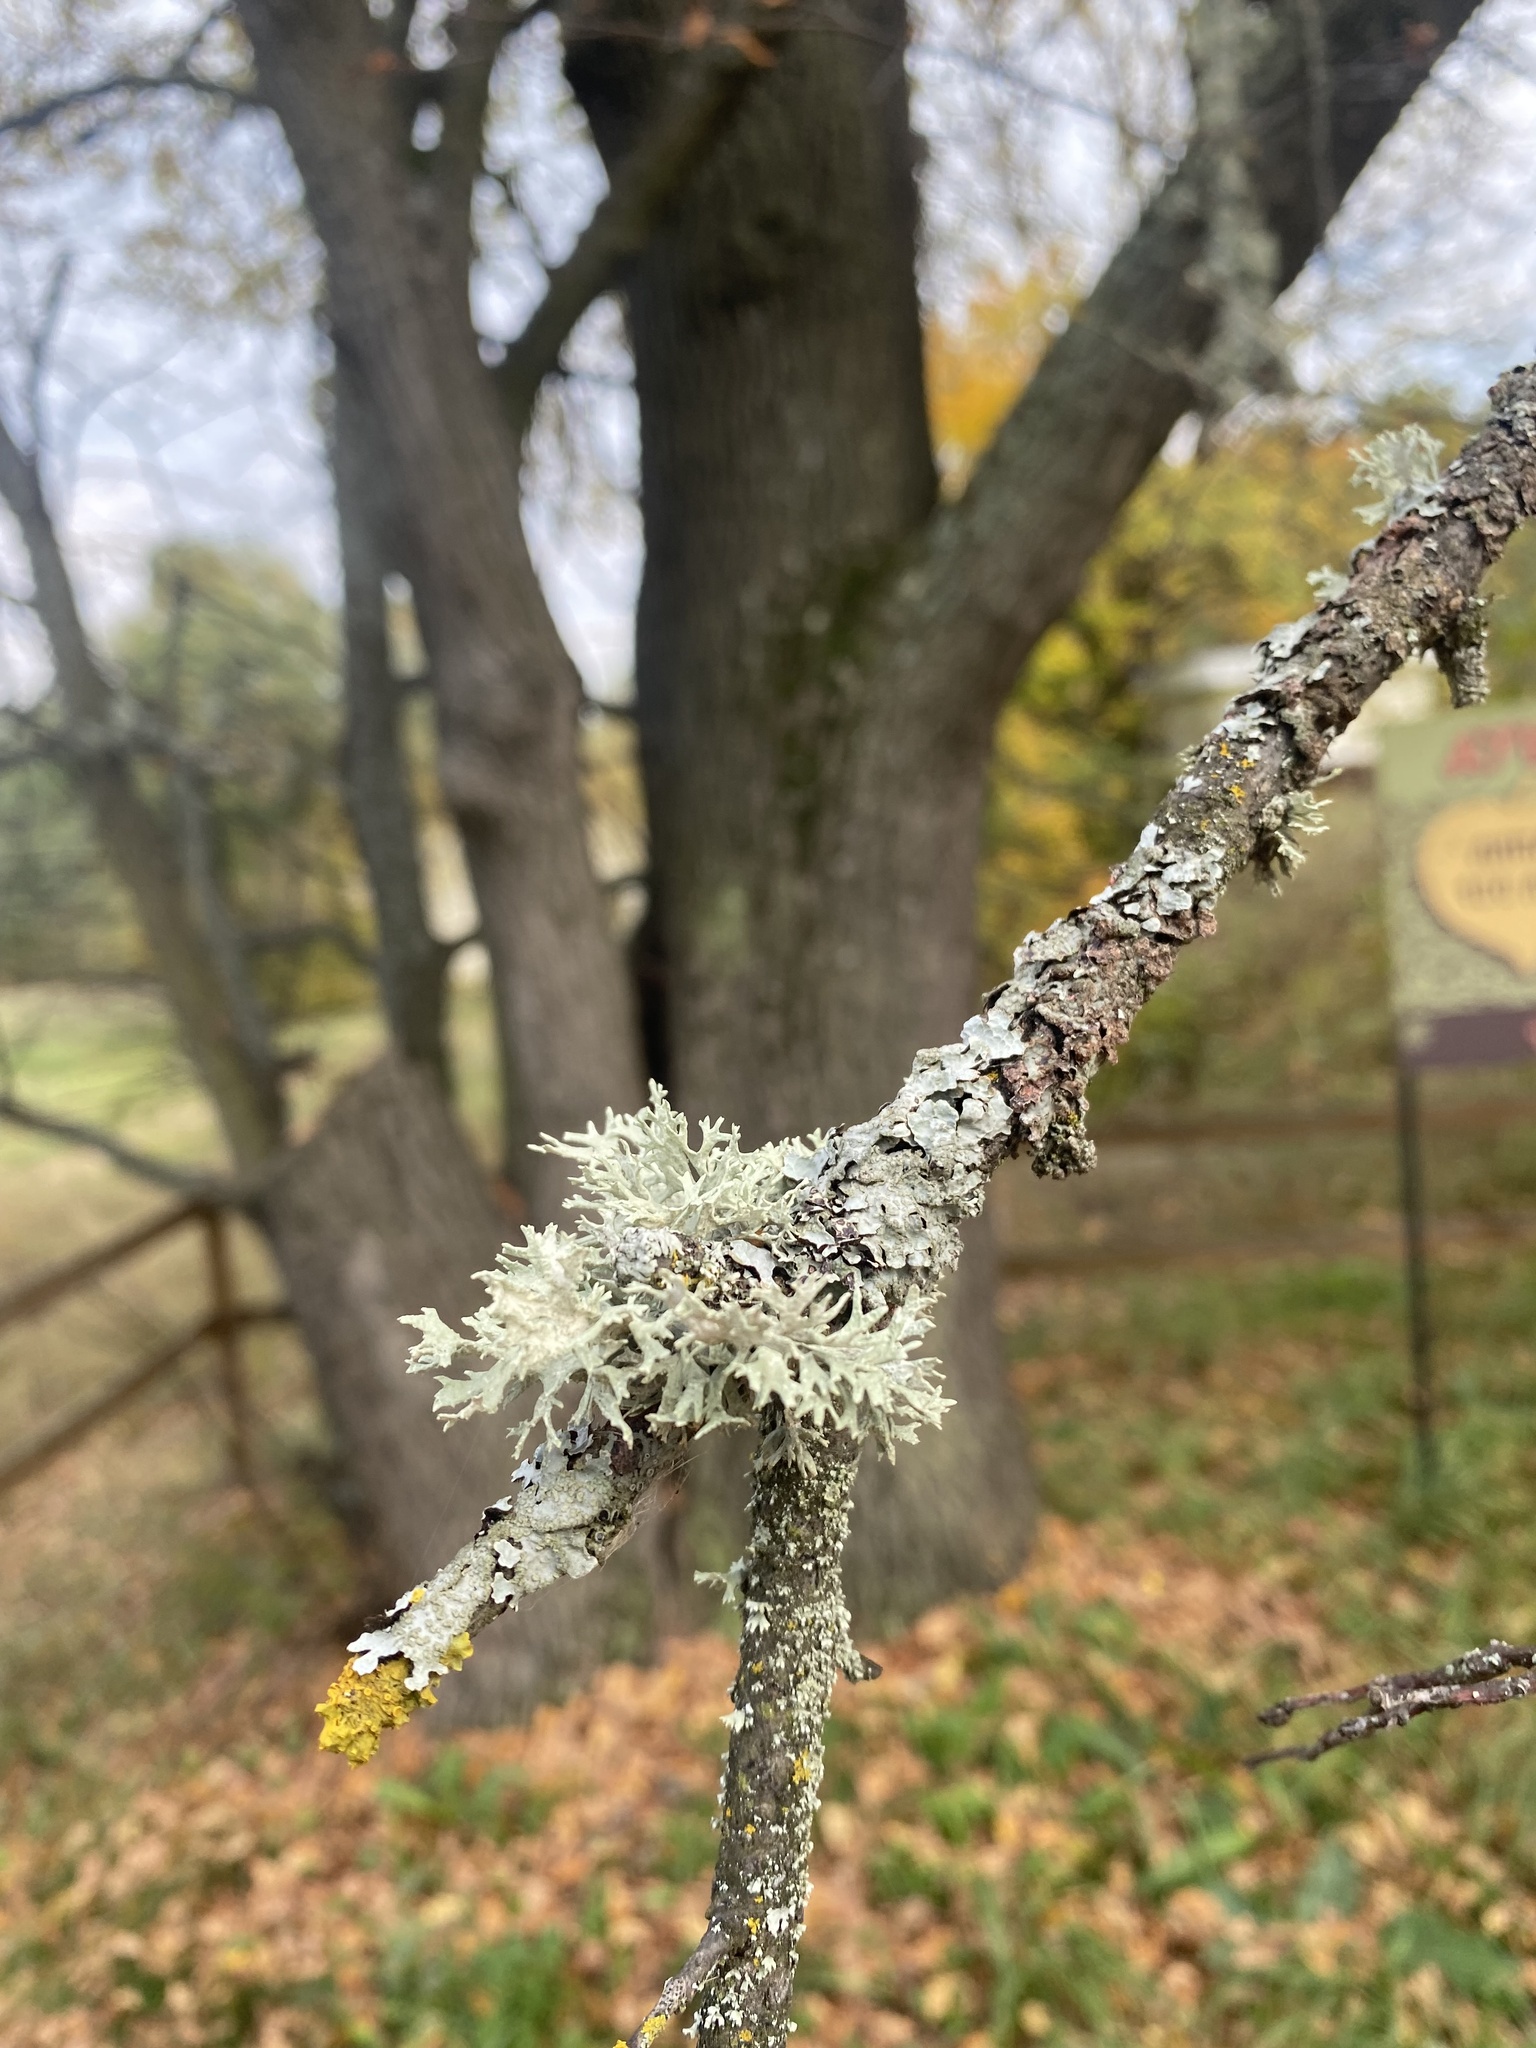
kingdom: Fungi
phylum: Ascomycota
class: Lecanoromycetes
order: Lecanorales
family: Parmeliaceae
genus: Evernia
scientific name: Evernia prunastri
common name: Oak moss
